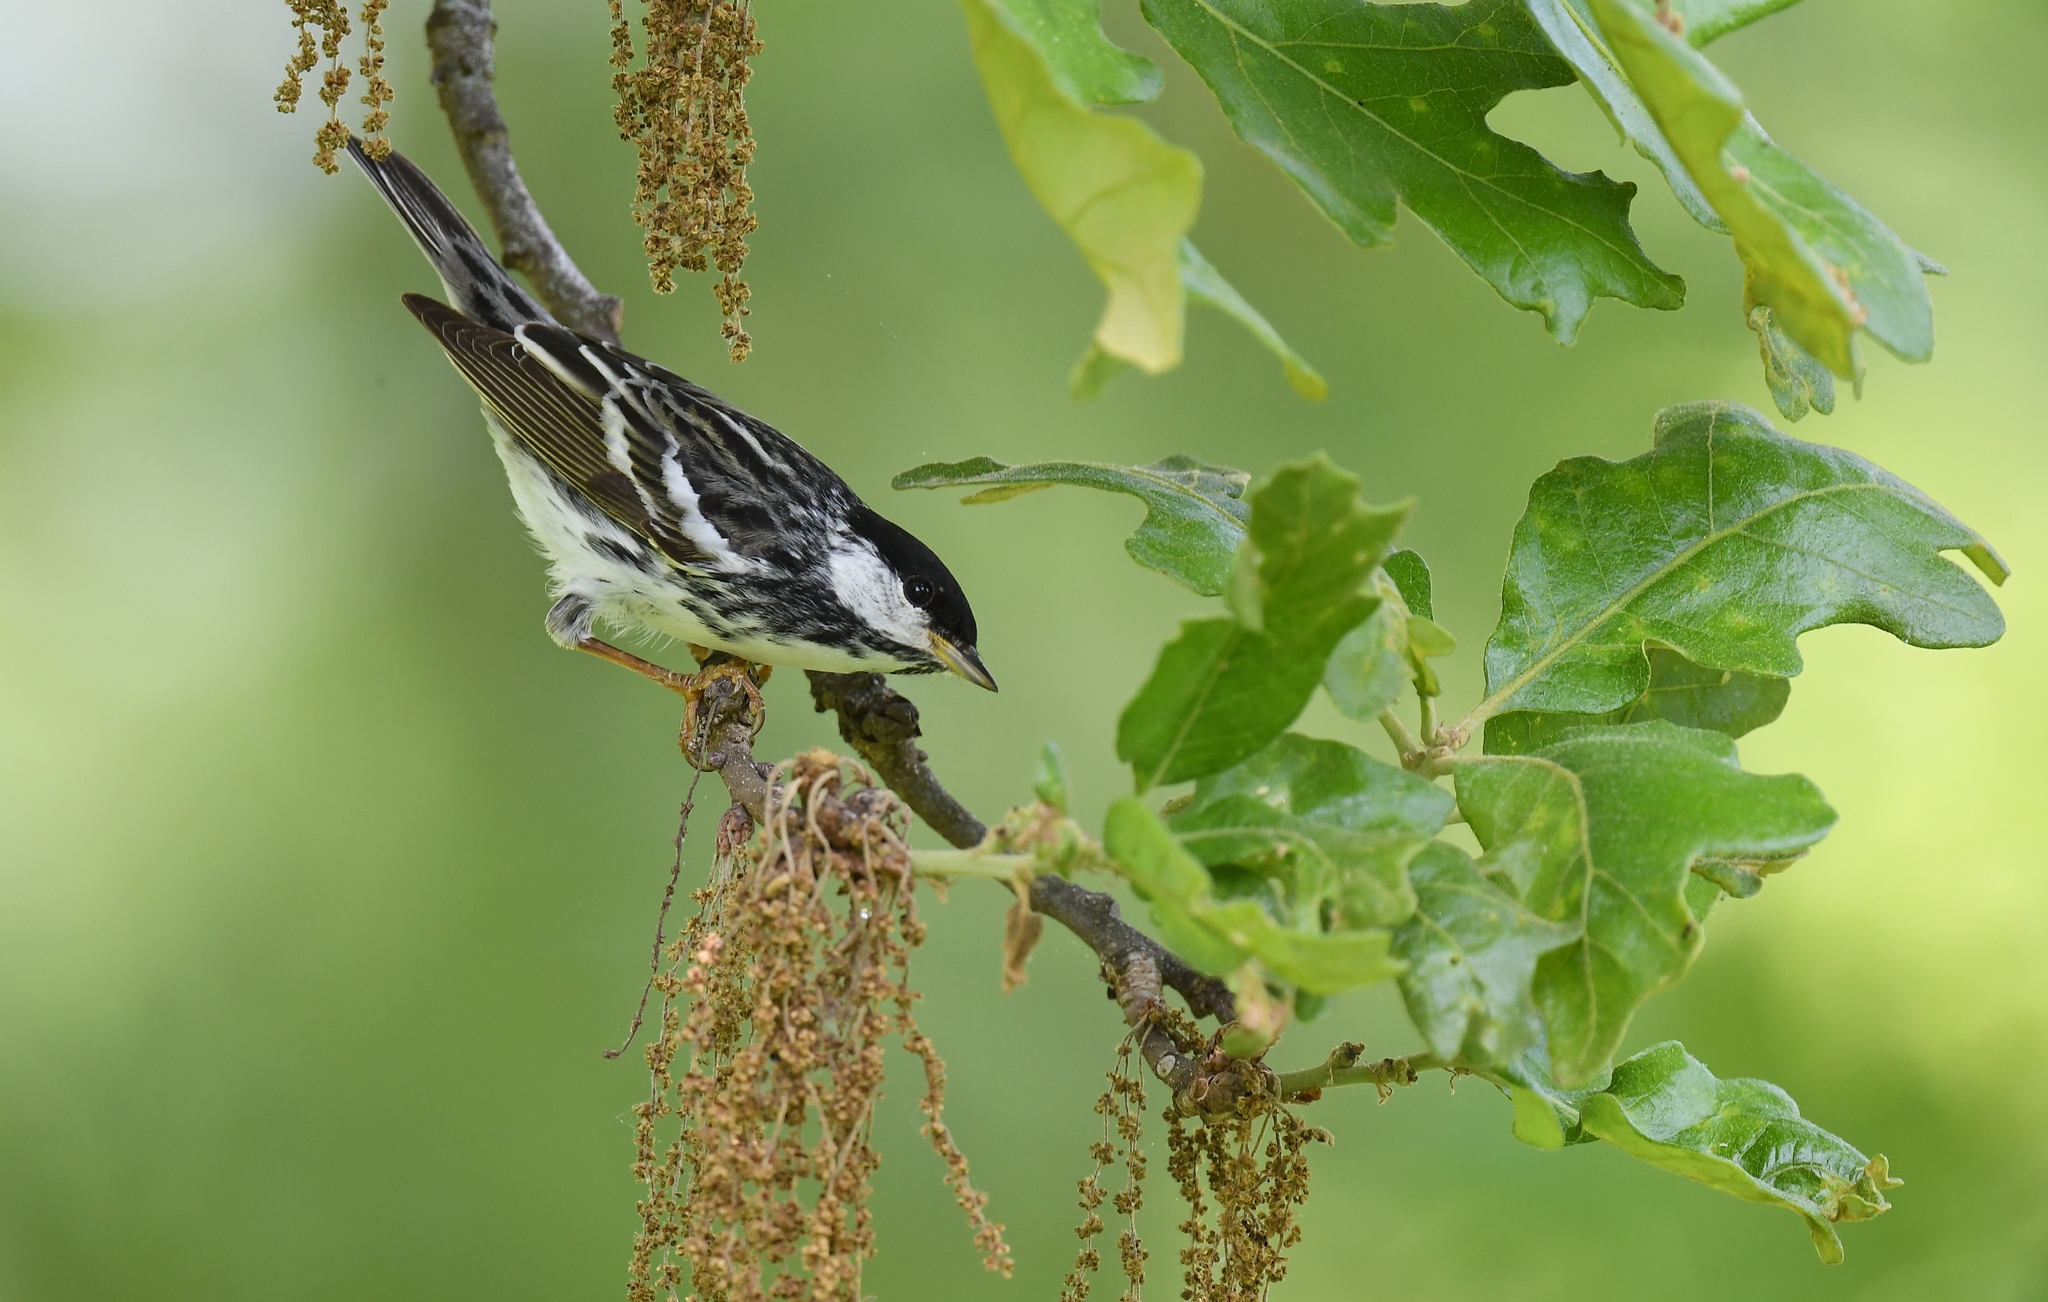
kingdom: Animalia
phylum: Chordata
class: Aves
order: Passeriformes
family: Parulidae
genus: Setophaga
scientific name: Setophaga striata
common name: Blackpoll warbler
